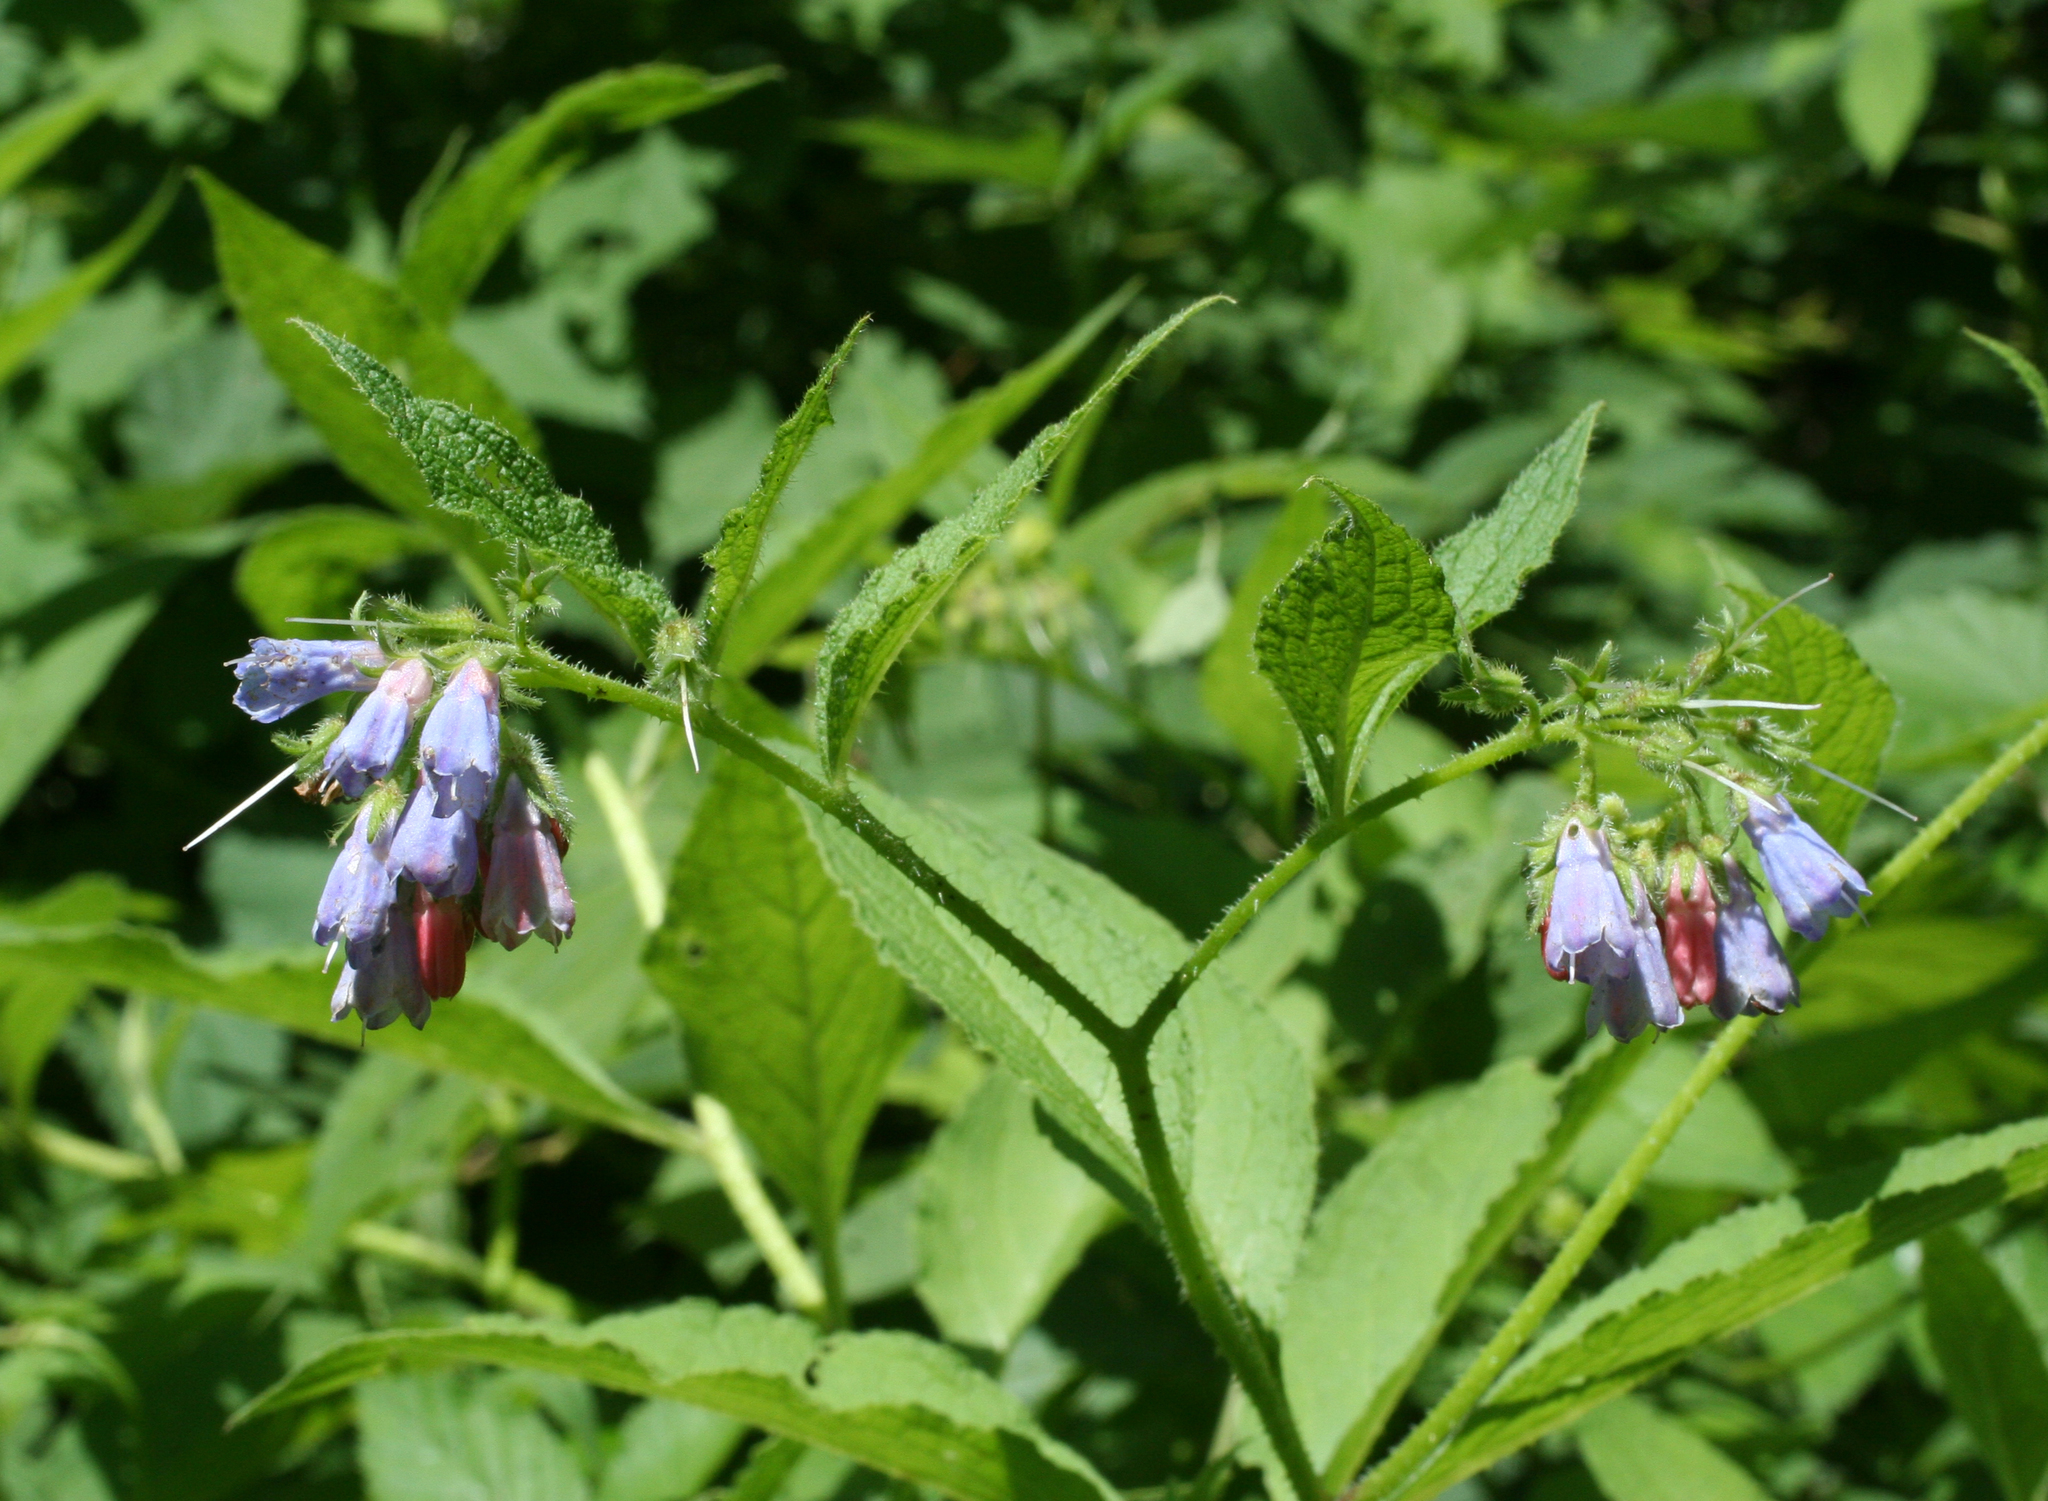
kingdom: Plantae
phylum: Tracheophyta
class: Magnoliopsida
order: Boraginales
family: Boraginaceae
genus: Symphytum
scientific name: Symphytum asperum
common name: Prickly comfrey
